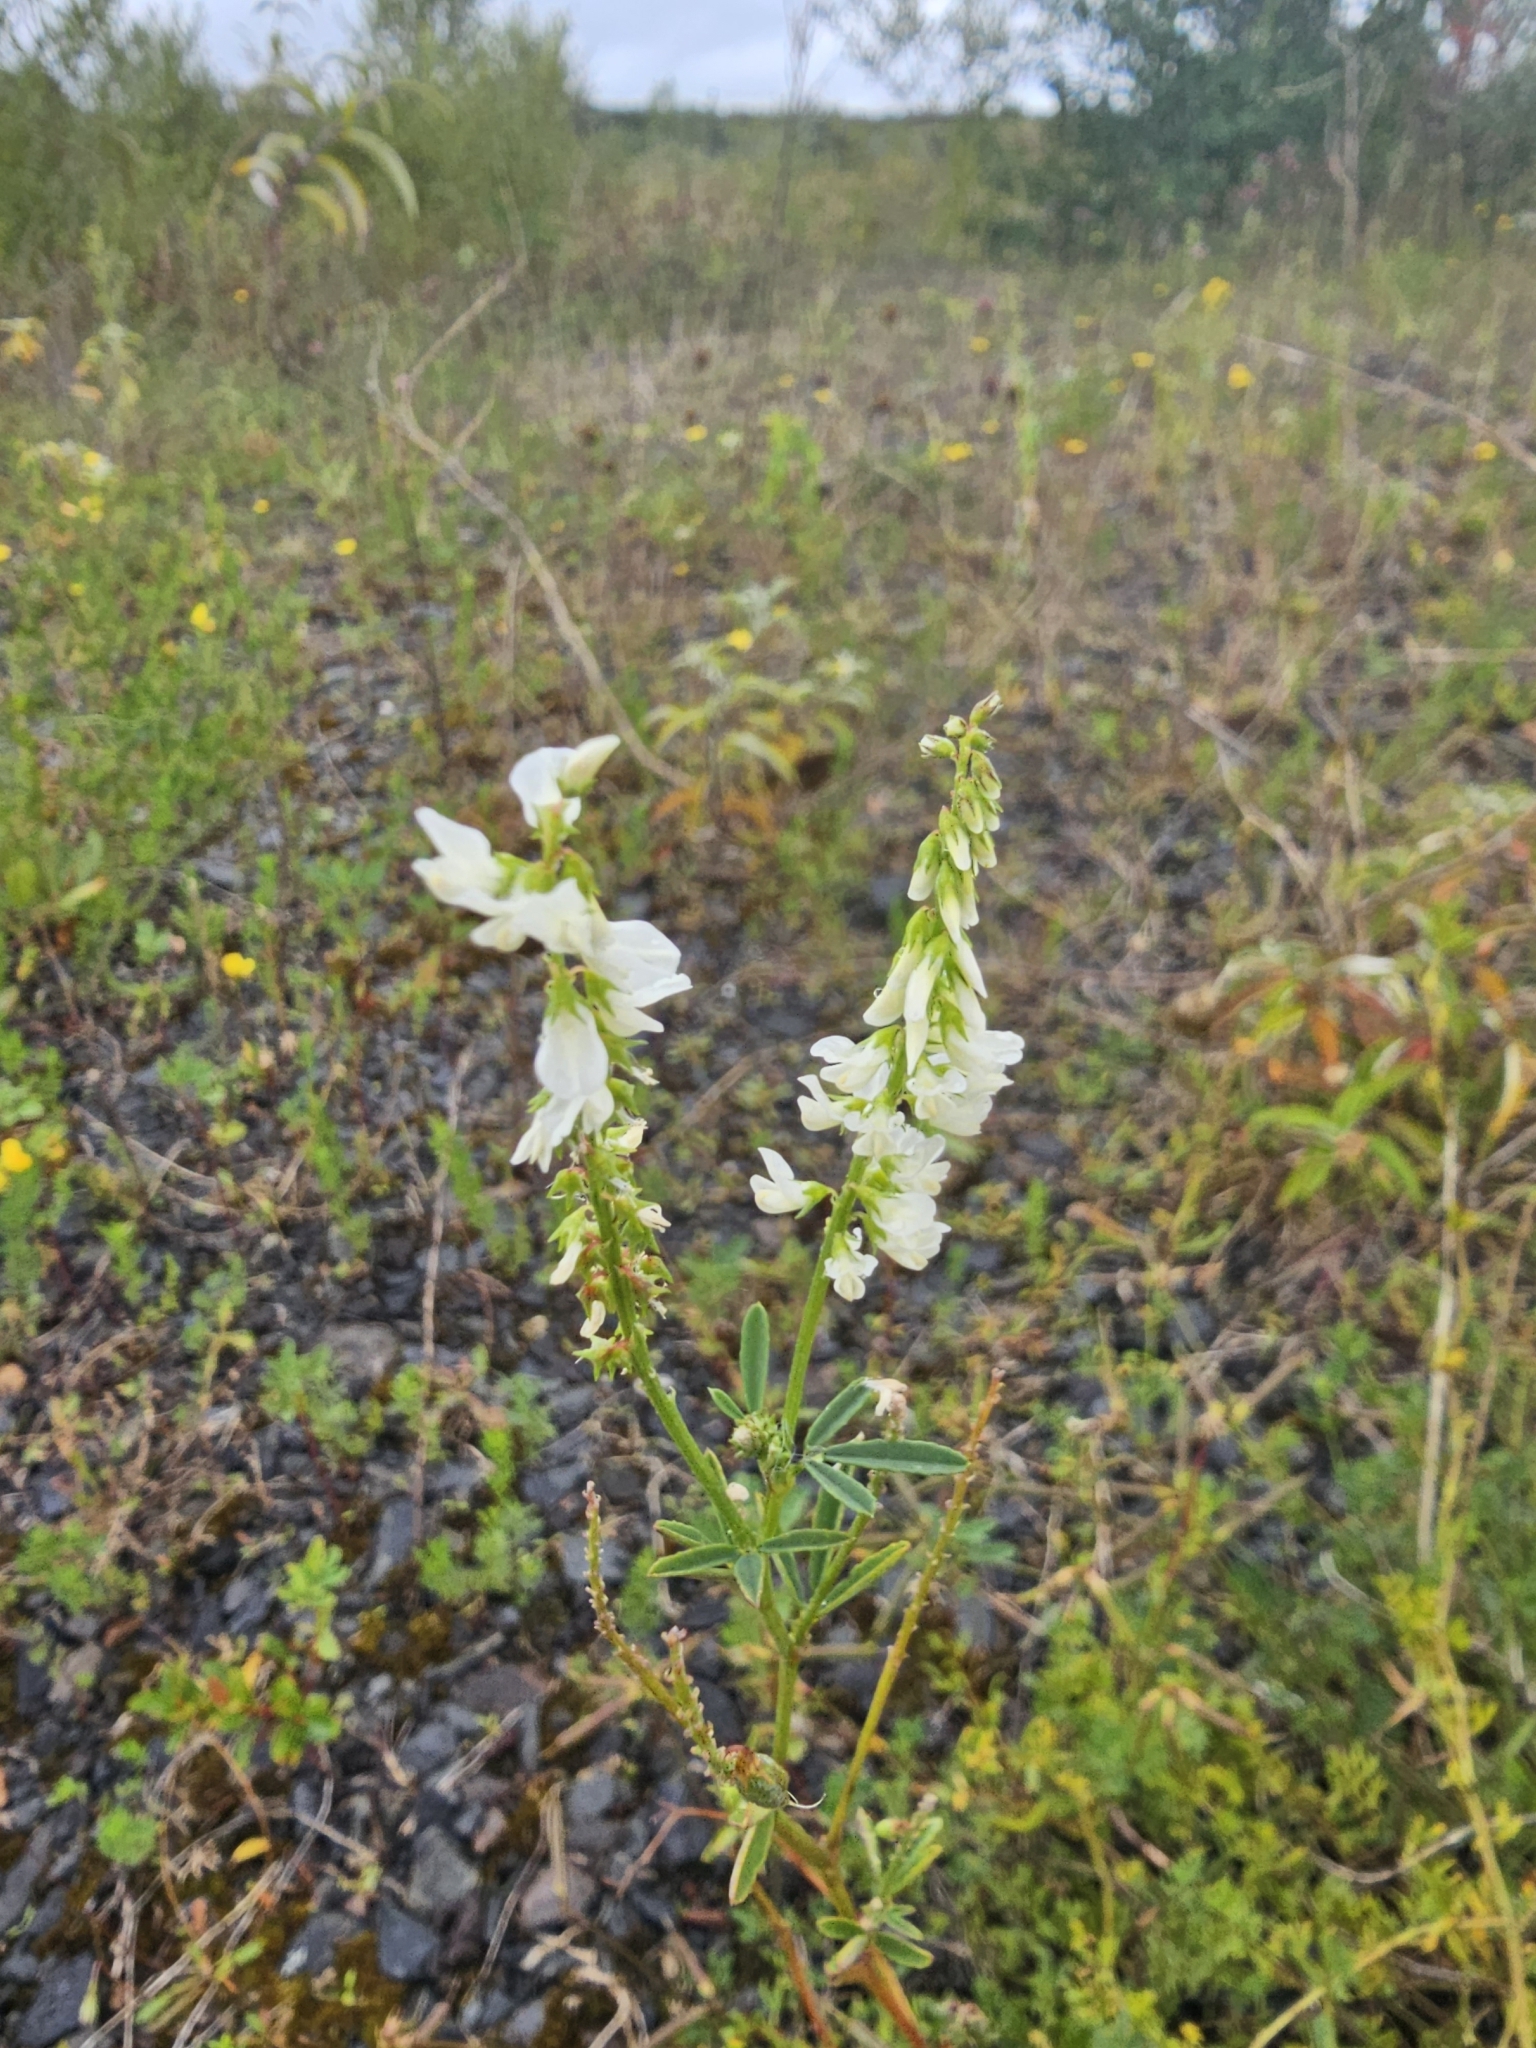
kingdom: Plantae
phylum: Tracheophyta
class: Magnoliopsida
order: Fabales
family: Fabaceae
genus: Melilotus
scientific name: Melilotus albus
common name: White melilot
